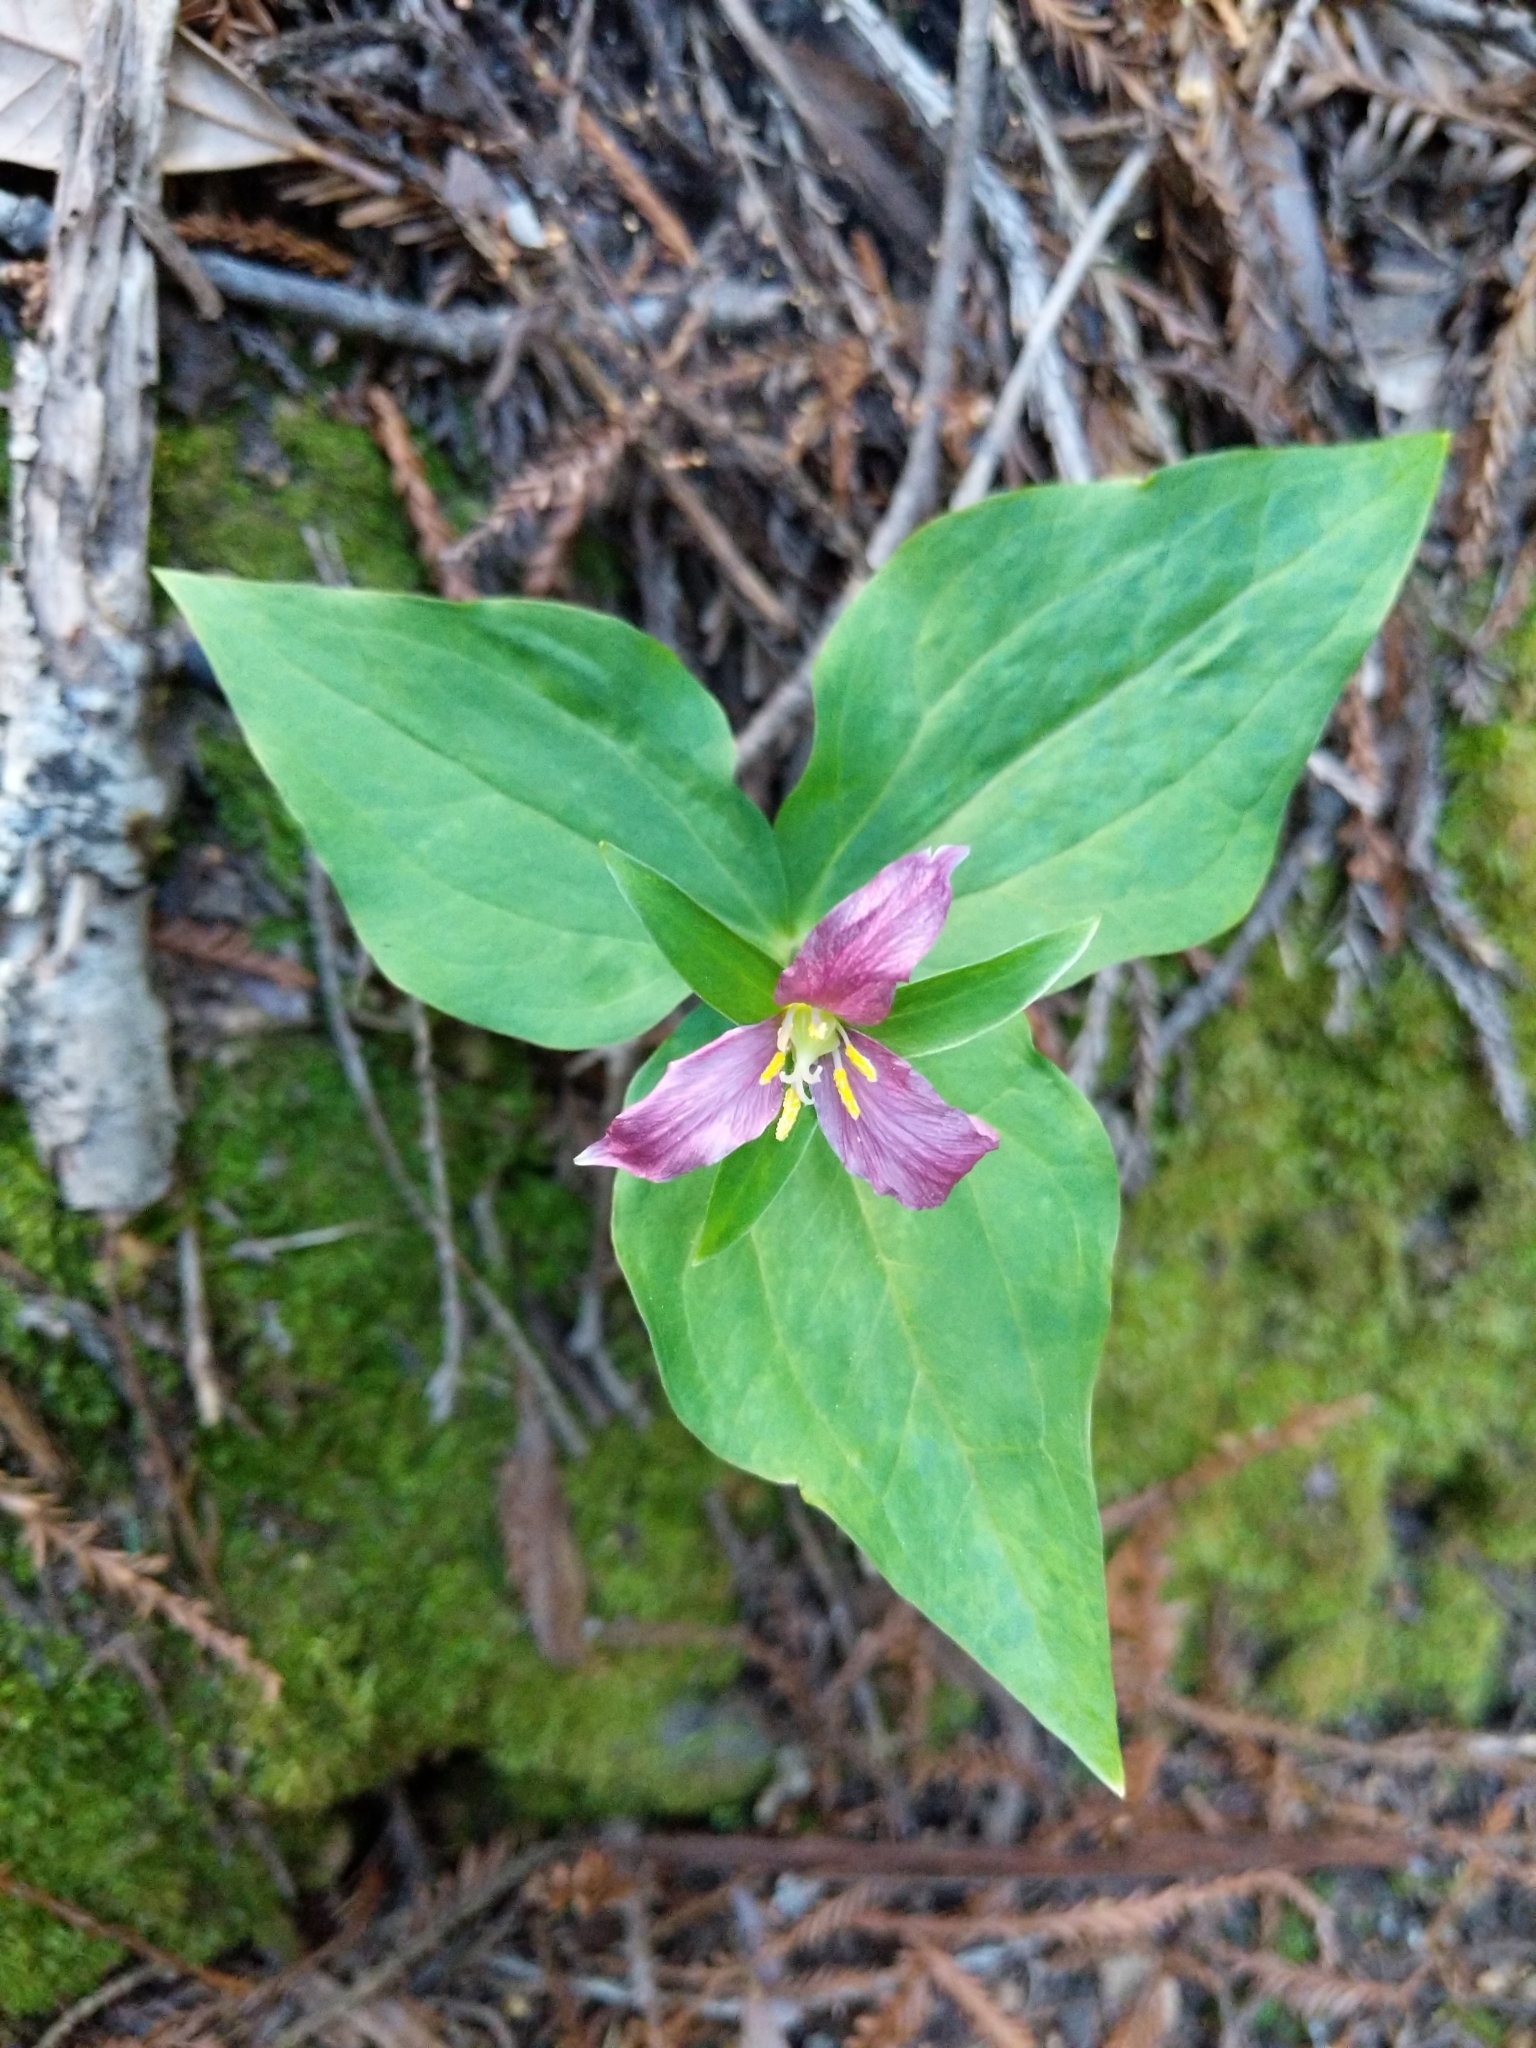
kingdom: Plantae
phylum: Tracheophyta
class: Liliopsida
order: Liliales
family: Melanthiaceae
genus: Trillium
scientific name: Trillium ovatum
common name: Pacific trillium
